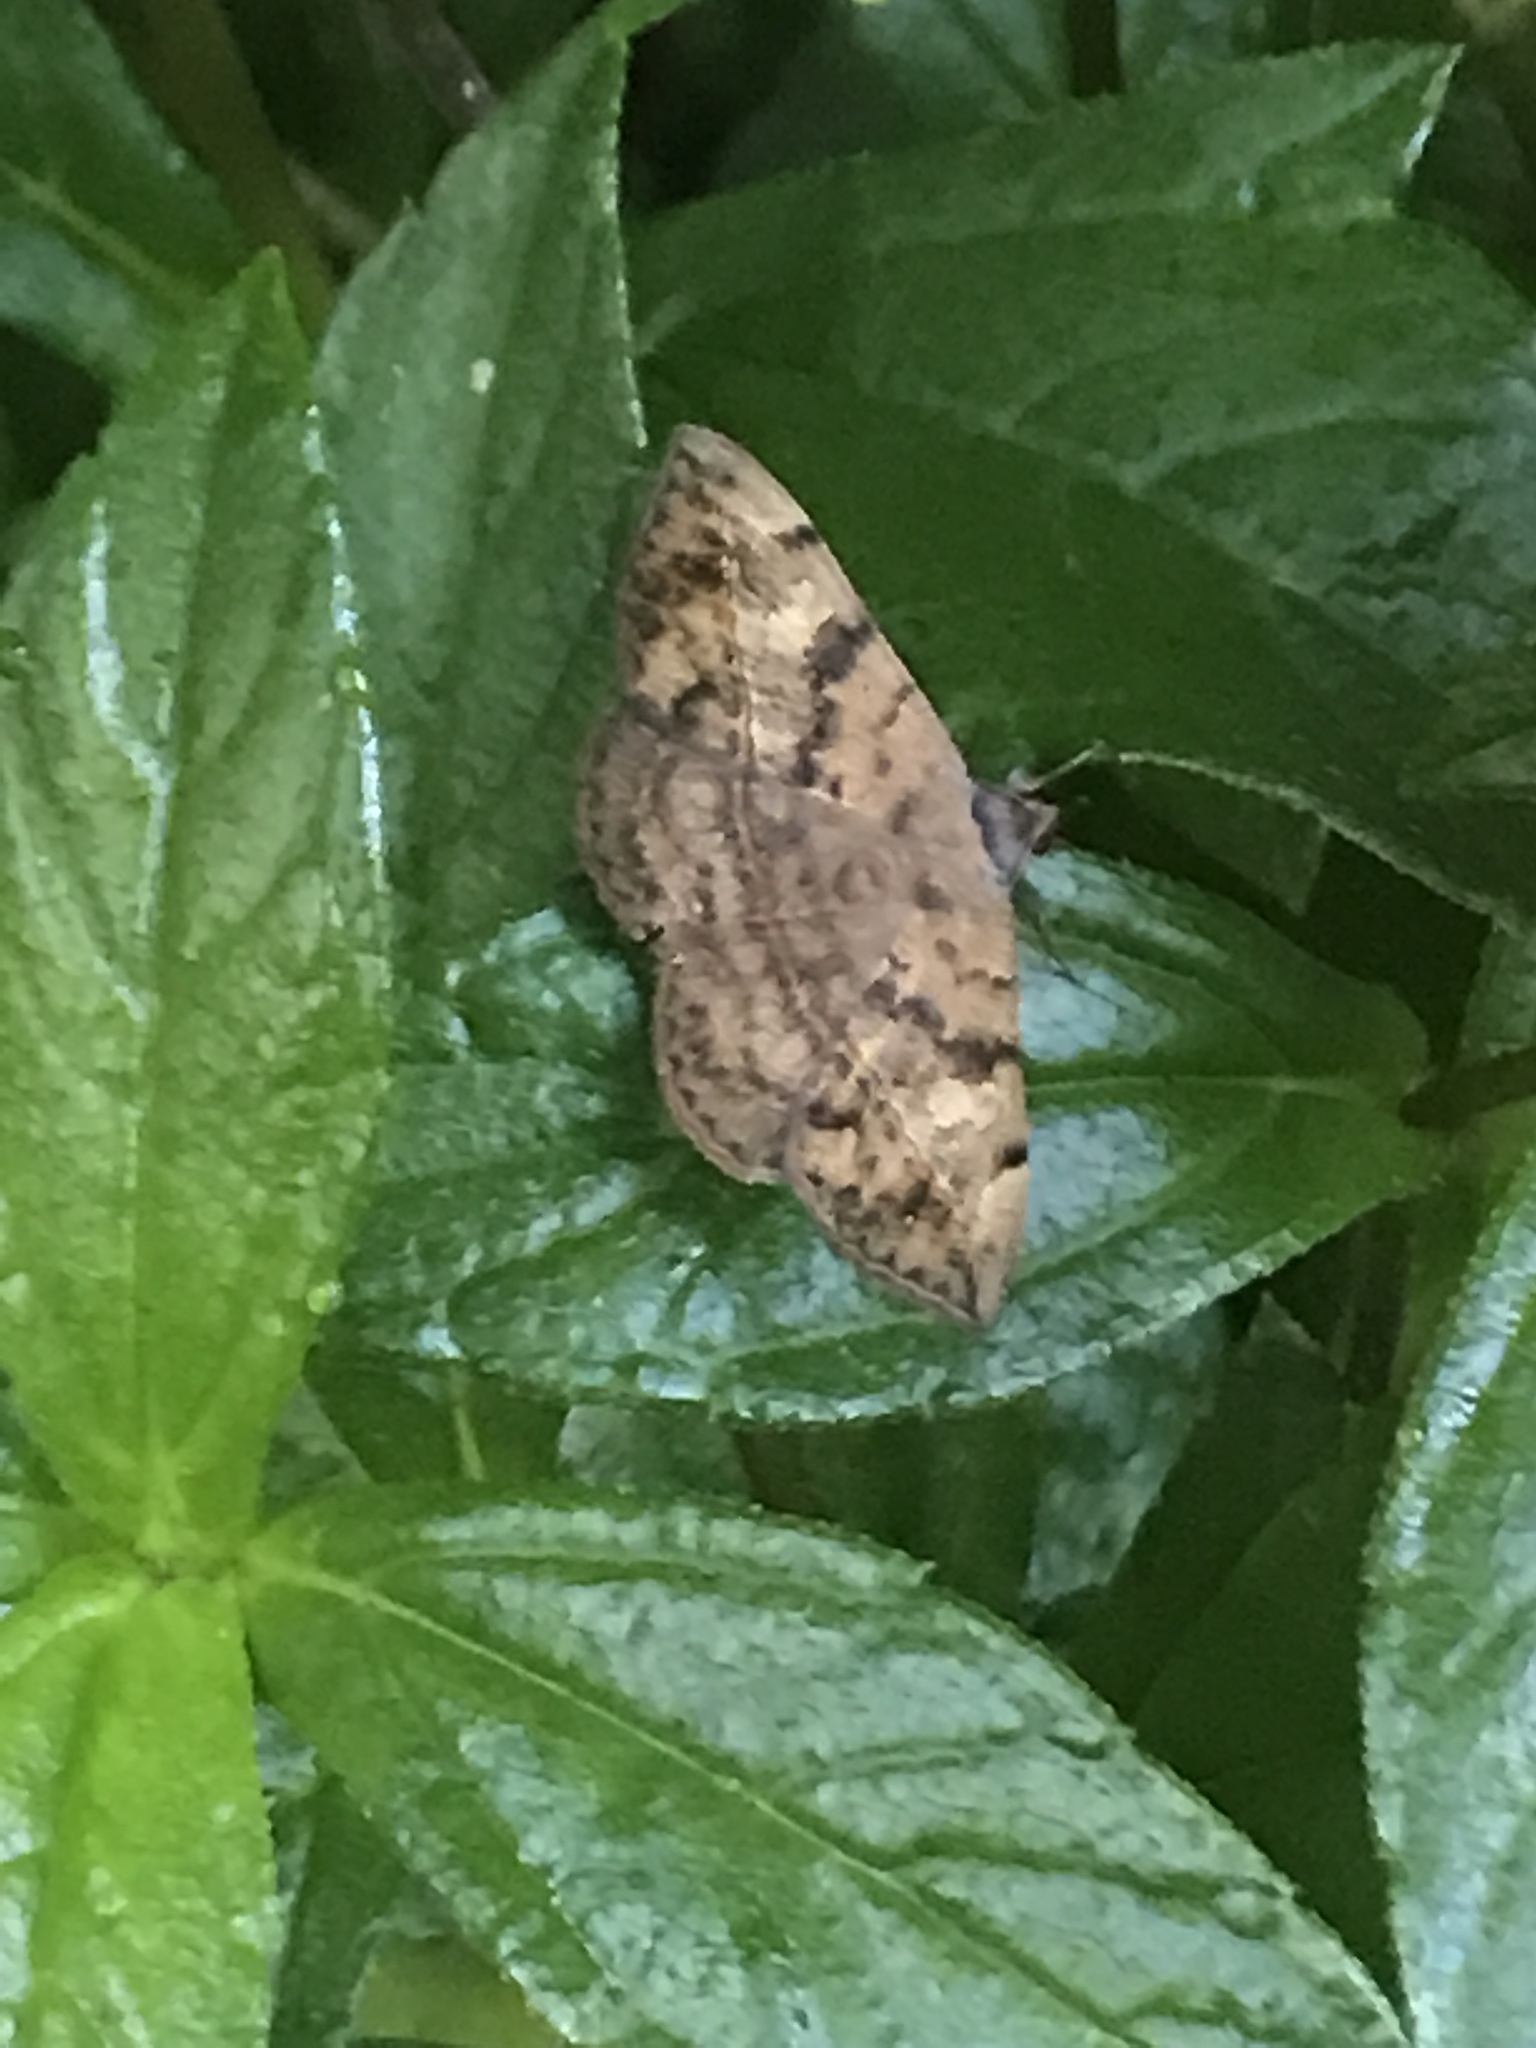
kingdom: Animalia
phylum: Arthropoda
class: Insecta
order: Lepidoptera
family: Erebidae
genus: Anticarsia
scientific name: Anticarsia gemmatalis
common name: Cutworm moth
